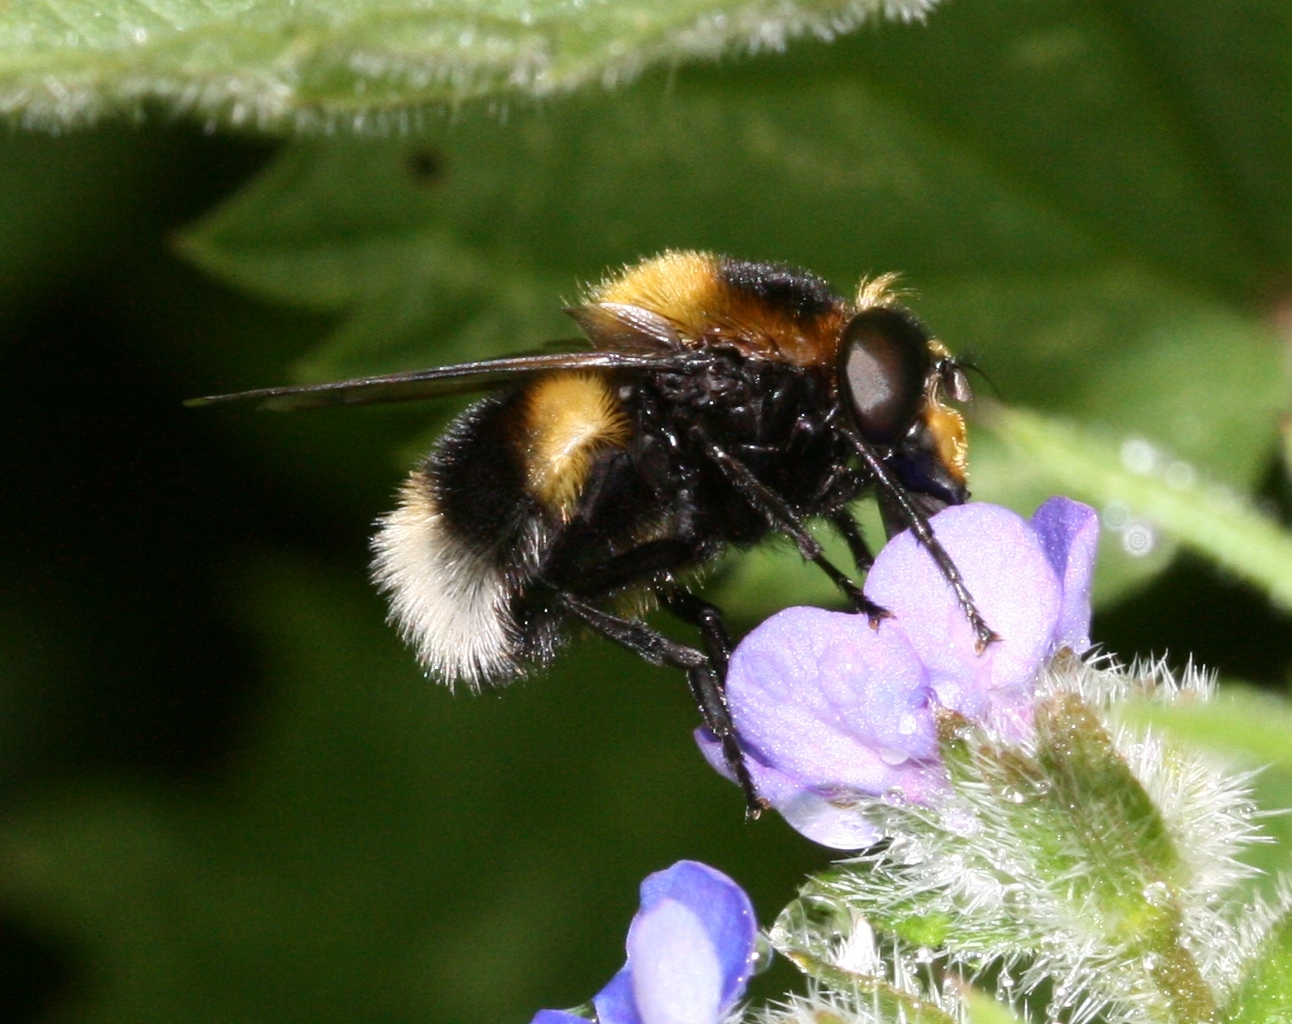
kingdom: Animalia
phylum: Arthropoda
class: Insecta
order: Diptera
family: Syrphidae
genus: Volucella
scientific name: Volucella bombylans
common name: Bumble bee hover fly
